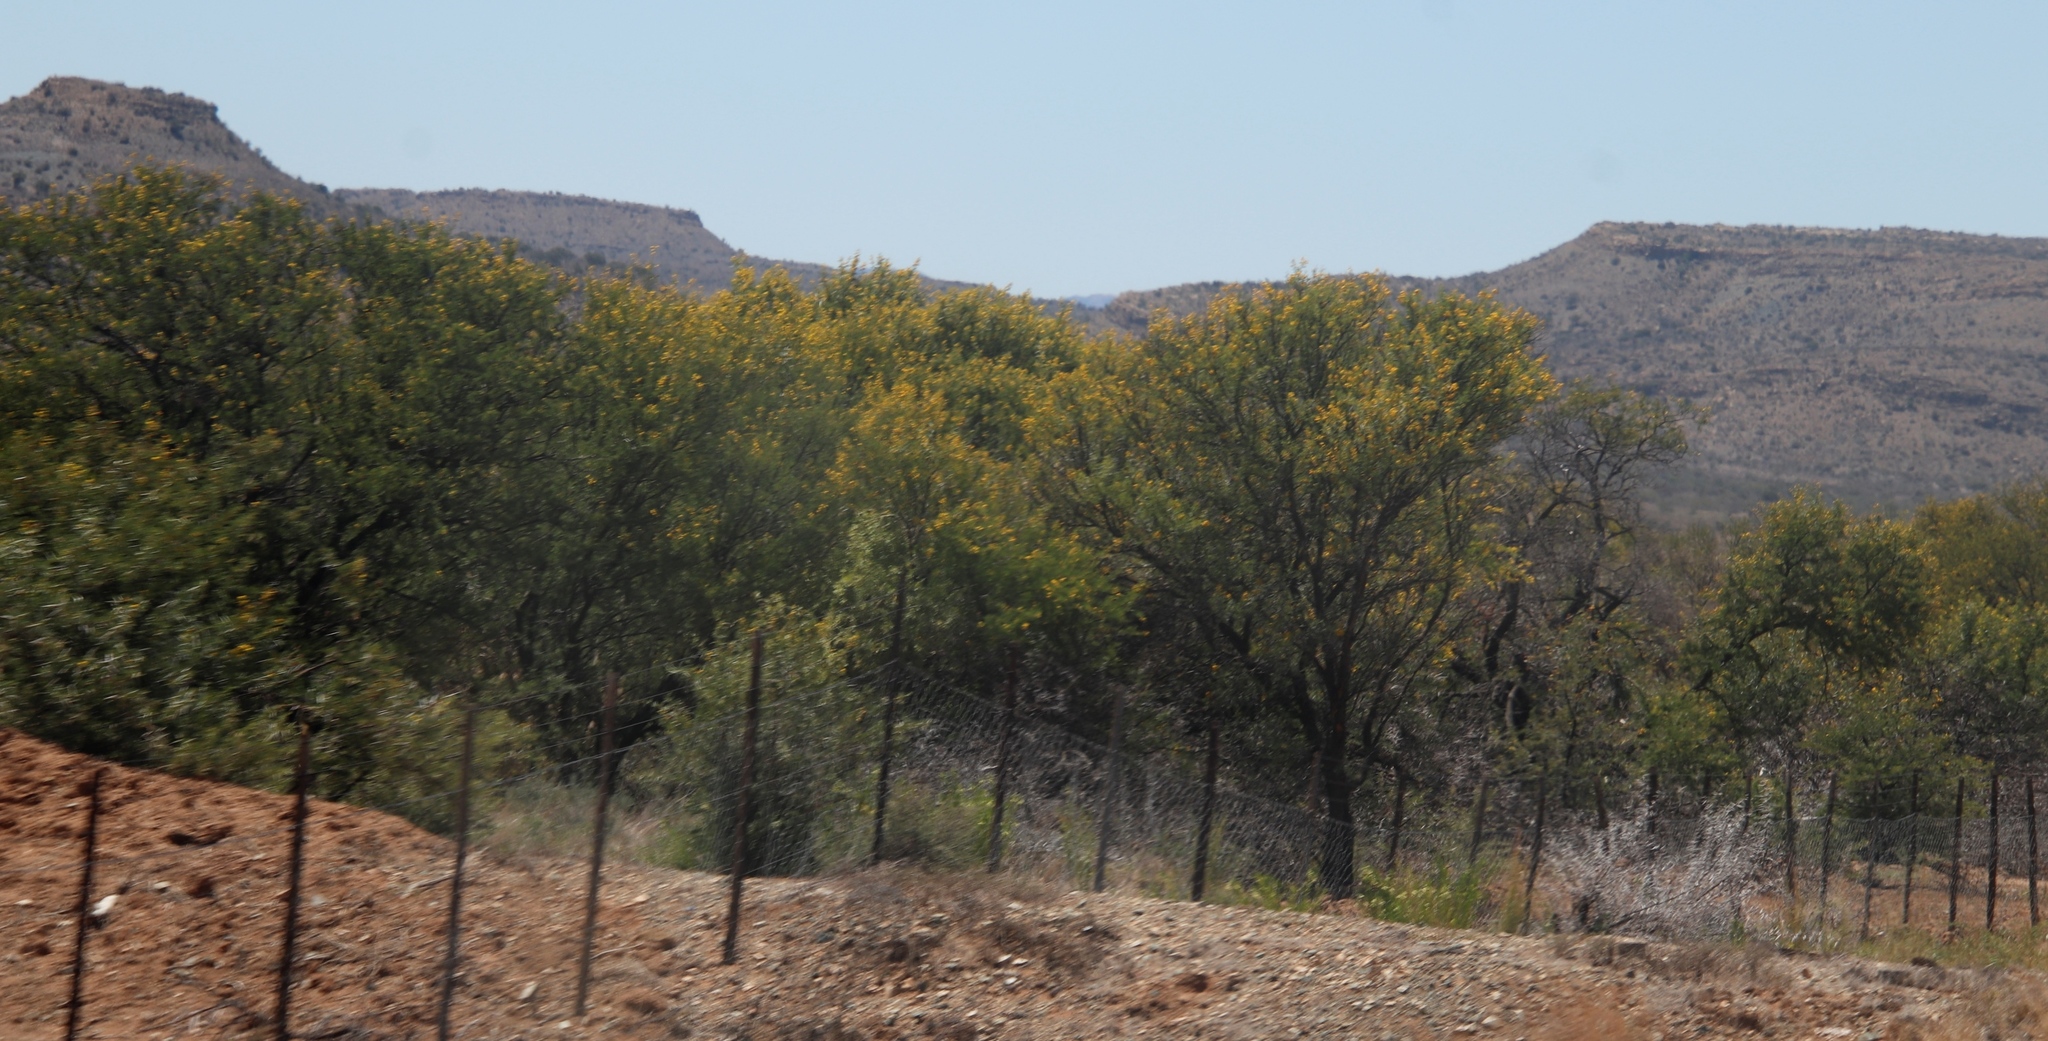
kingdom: Plantae
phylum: Tracheophyta
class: Magnoliopsida
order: Fabales
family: Fabaceae
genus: Vachellia
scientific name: Vachellia karroo
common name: Sweet thorn
